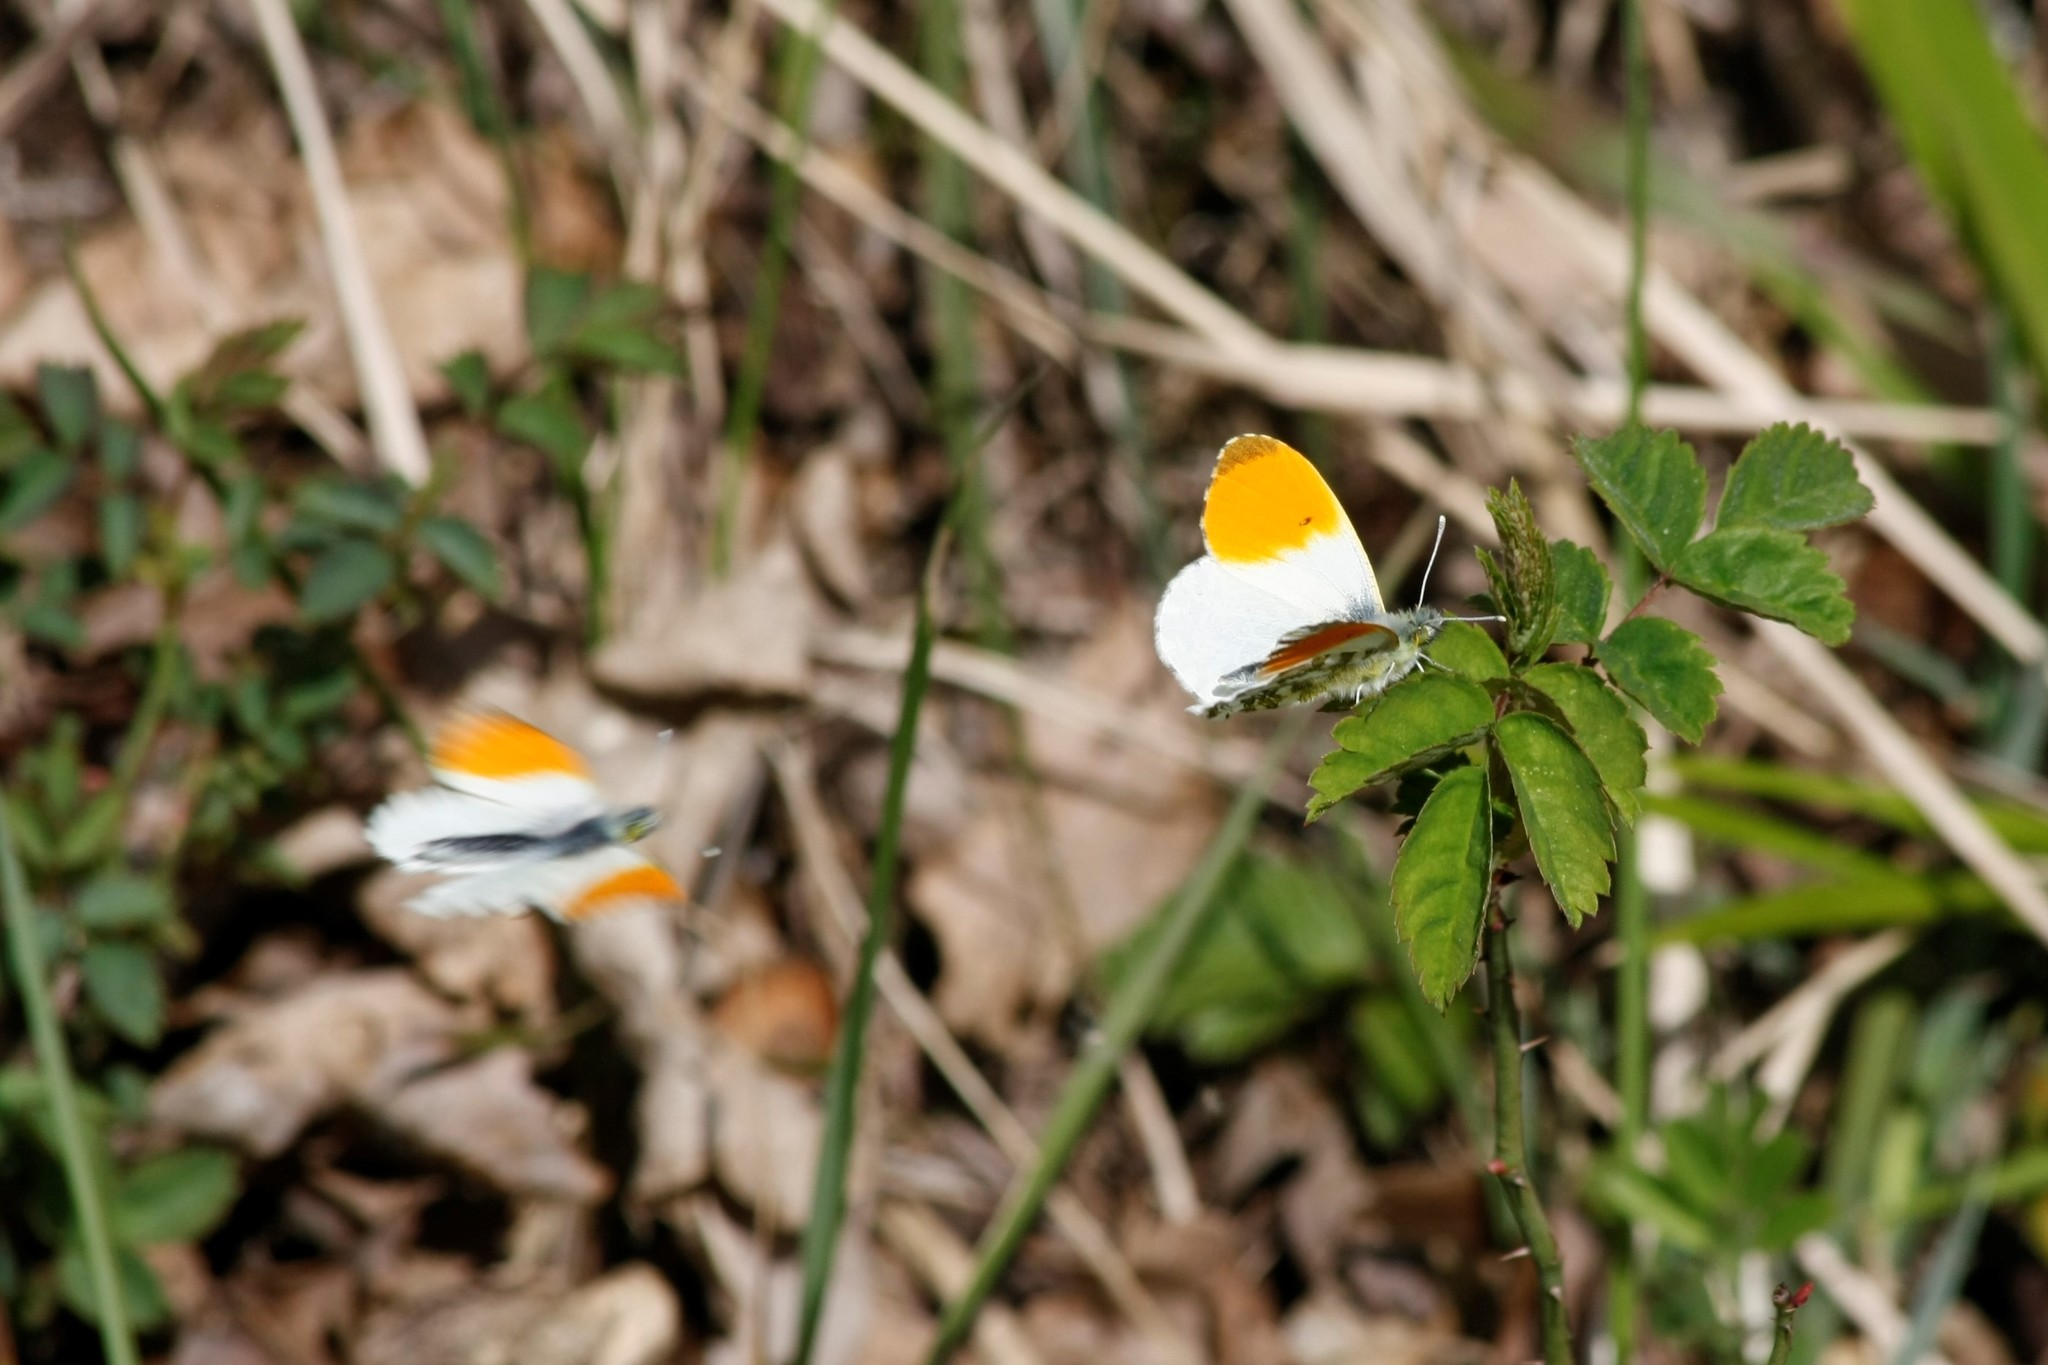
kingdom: Animalia
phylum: Arthropoda
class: Insecta
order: Lepidoptera
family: Pieridae
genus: Anthocharis
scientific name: Anthocharis cardamines
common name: Orange-tip
